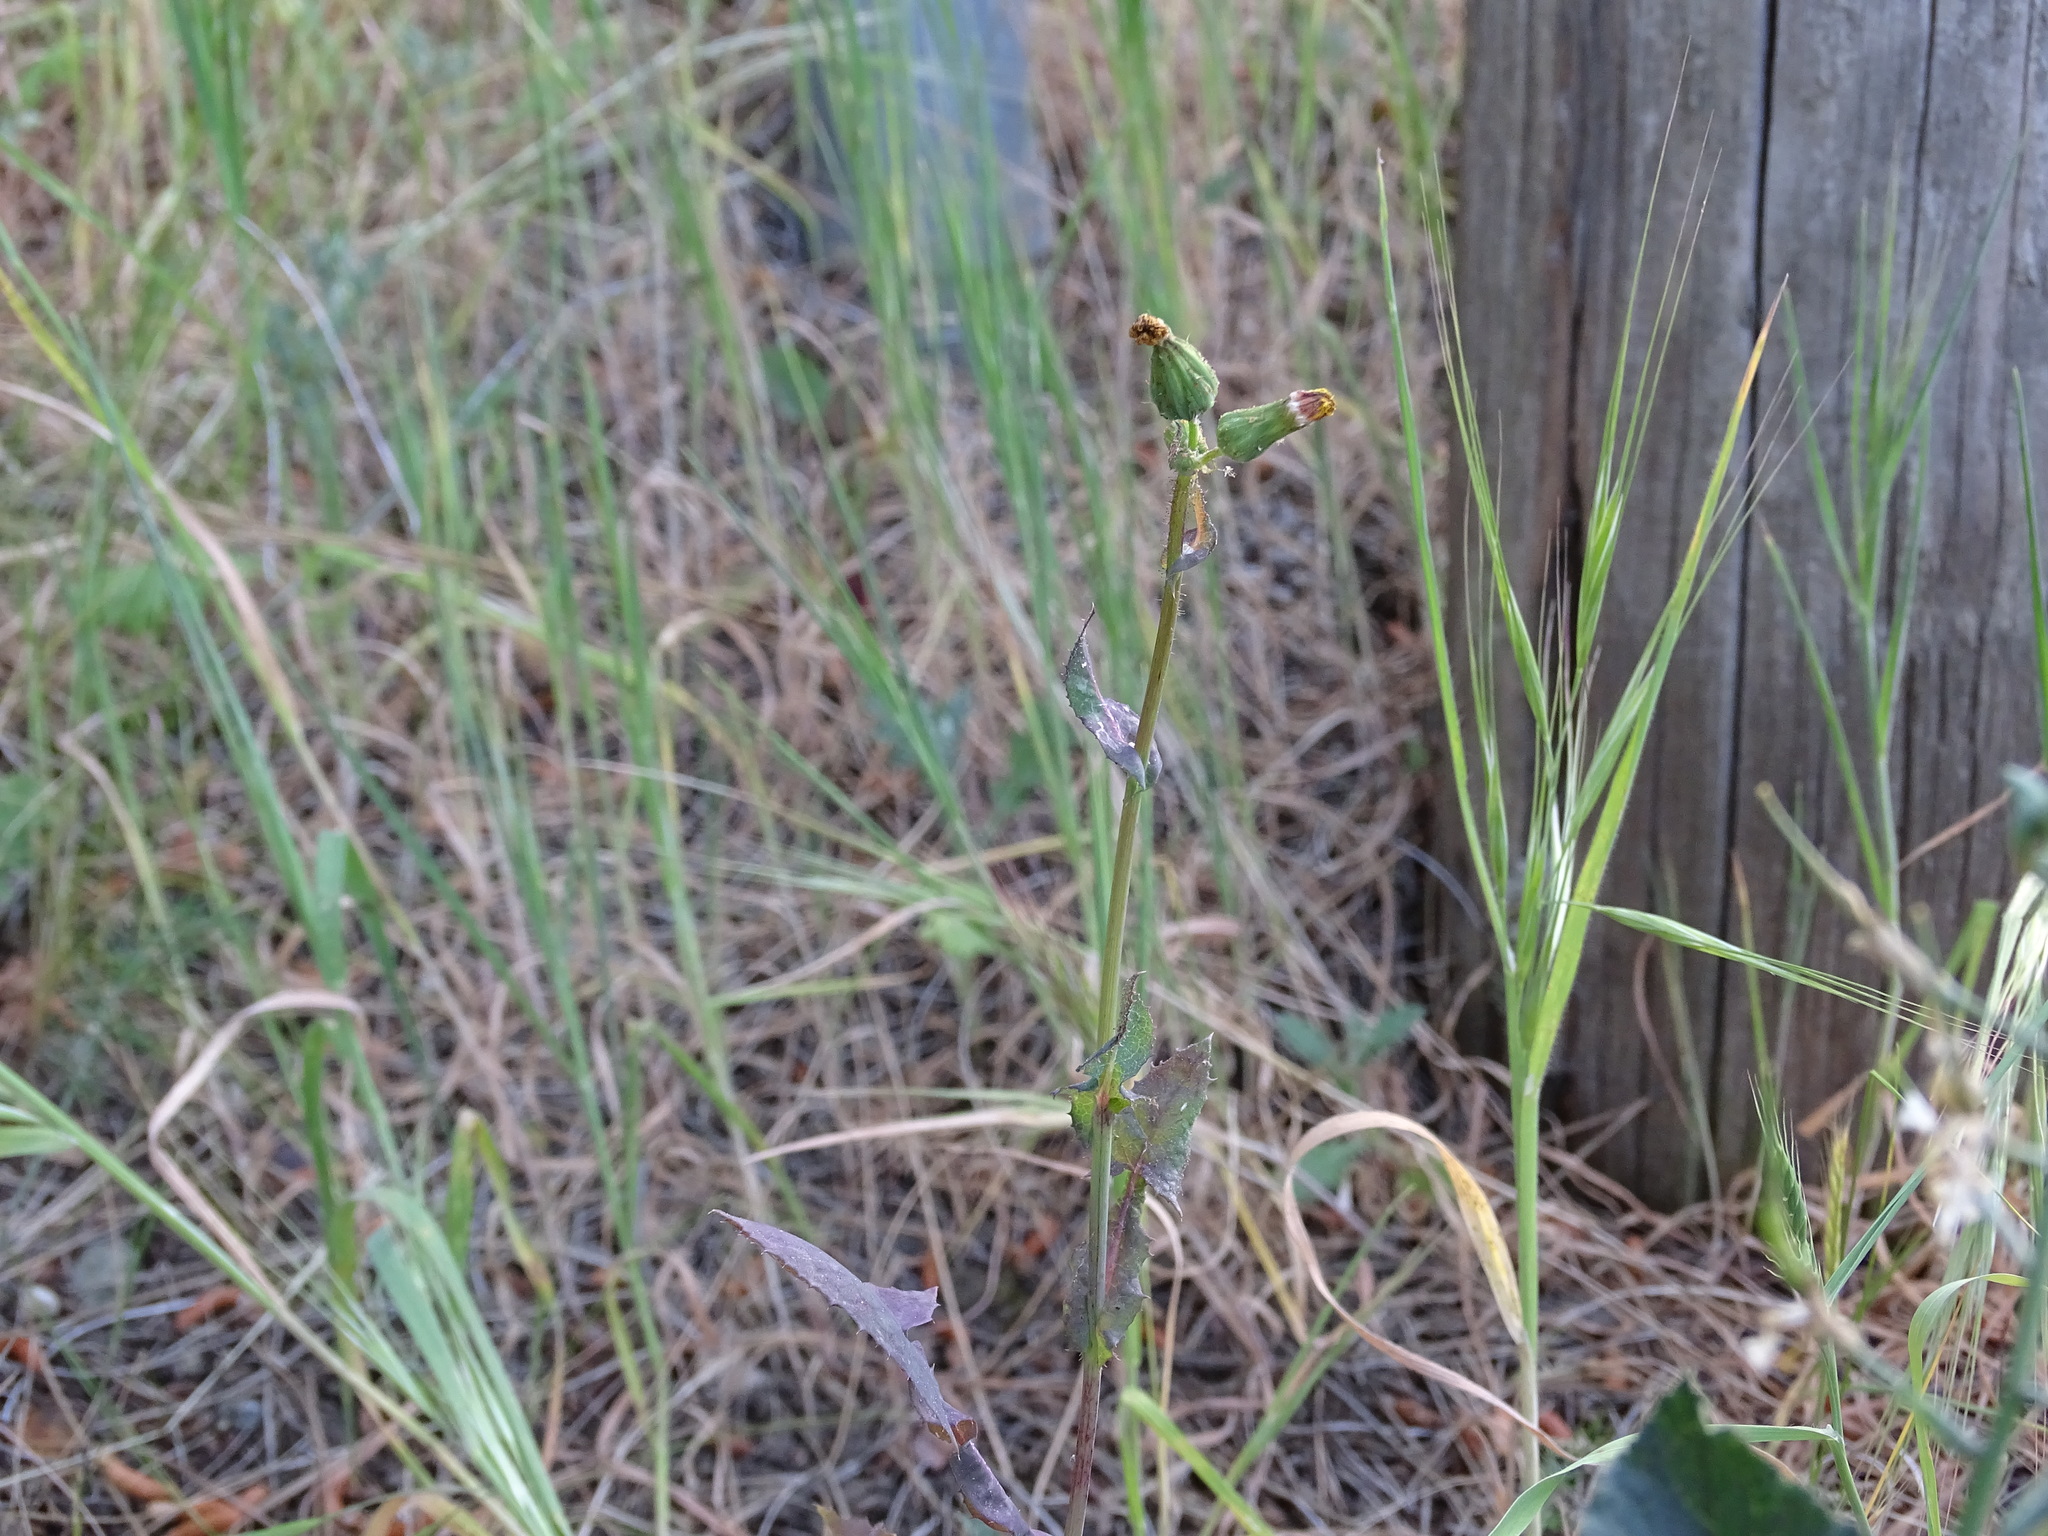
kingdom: Plantae
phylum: Tracheophyta
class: Magnoliopsida
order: Asterales
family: Asteraceae
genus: Sonchus
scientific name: Sonchus oleraceus
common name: Common sowthistle
